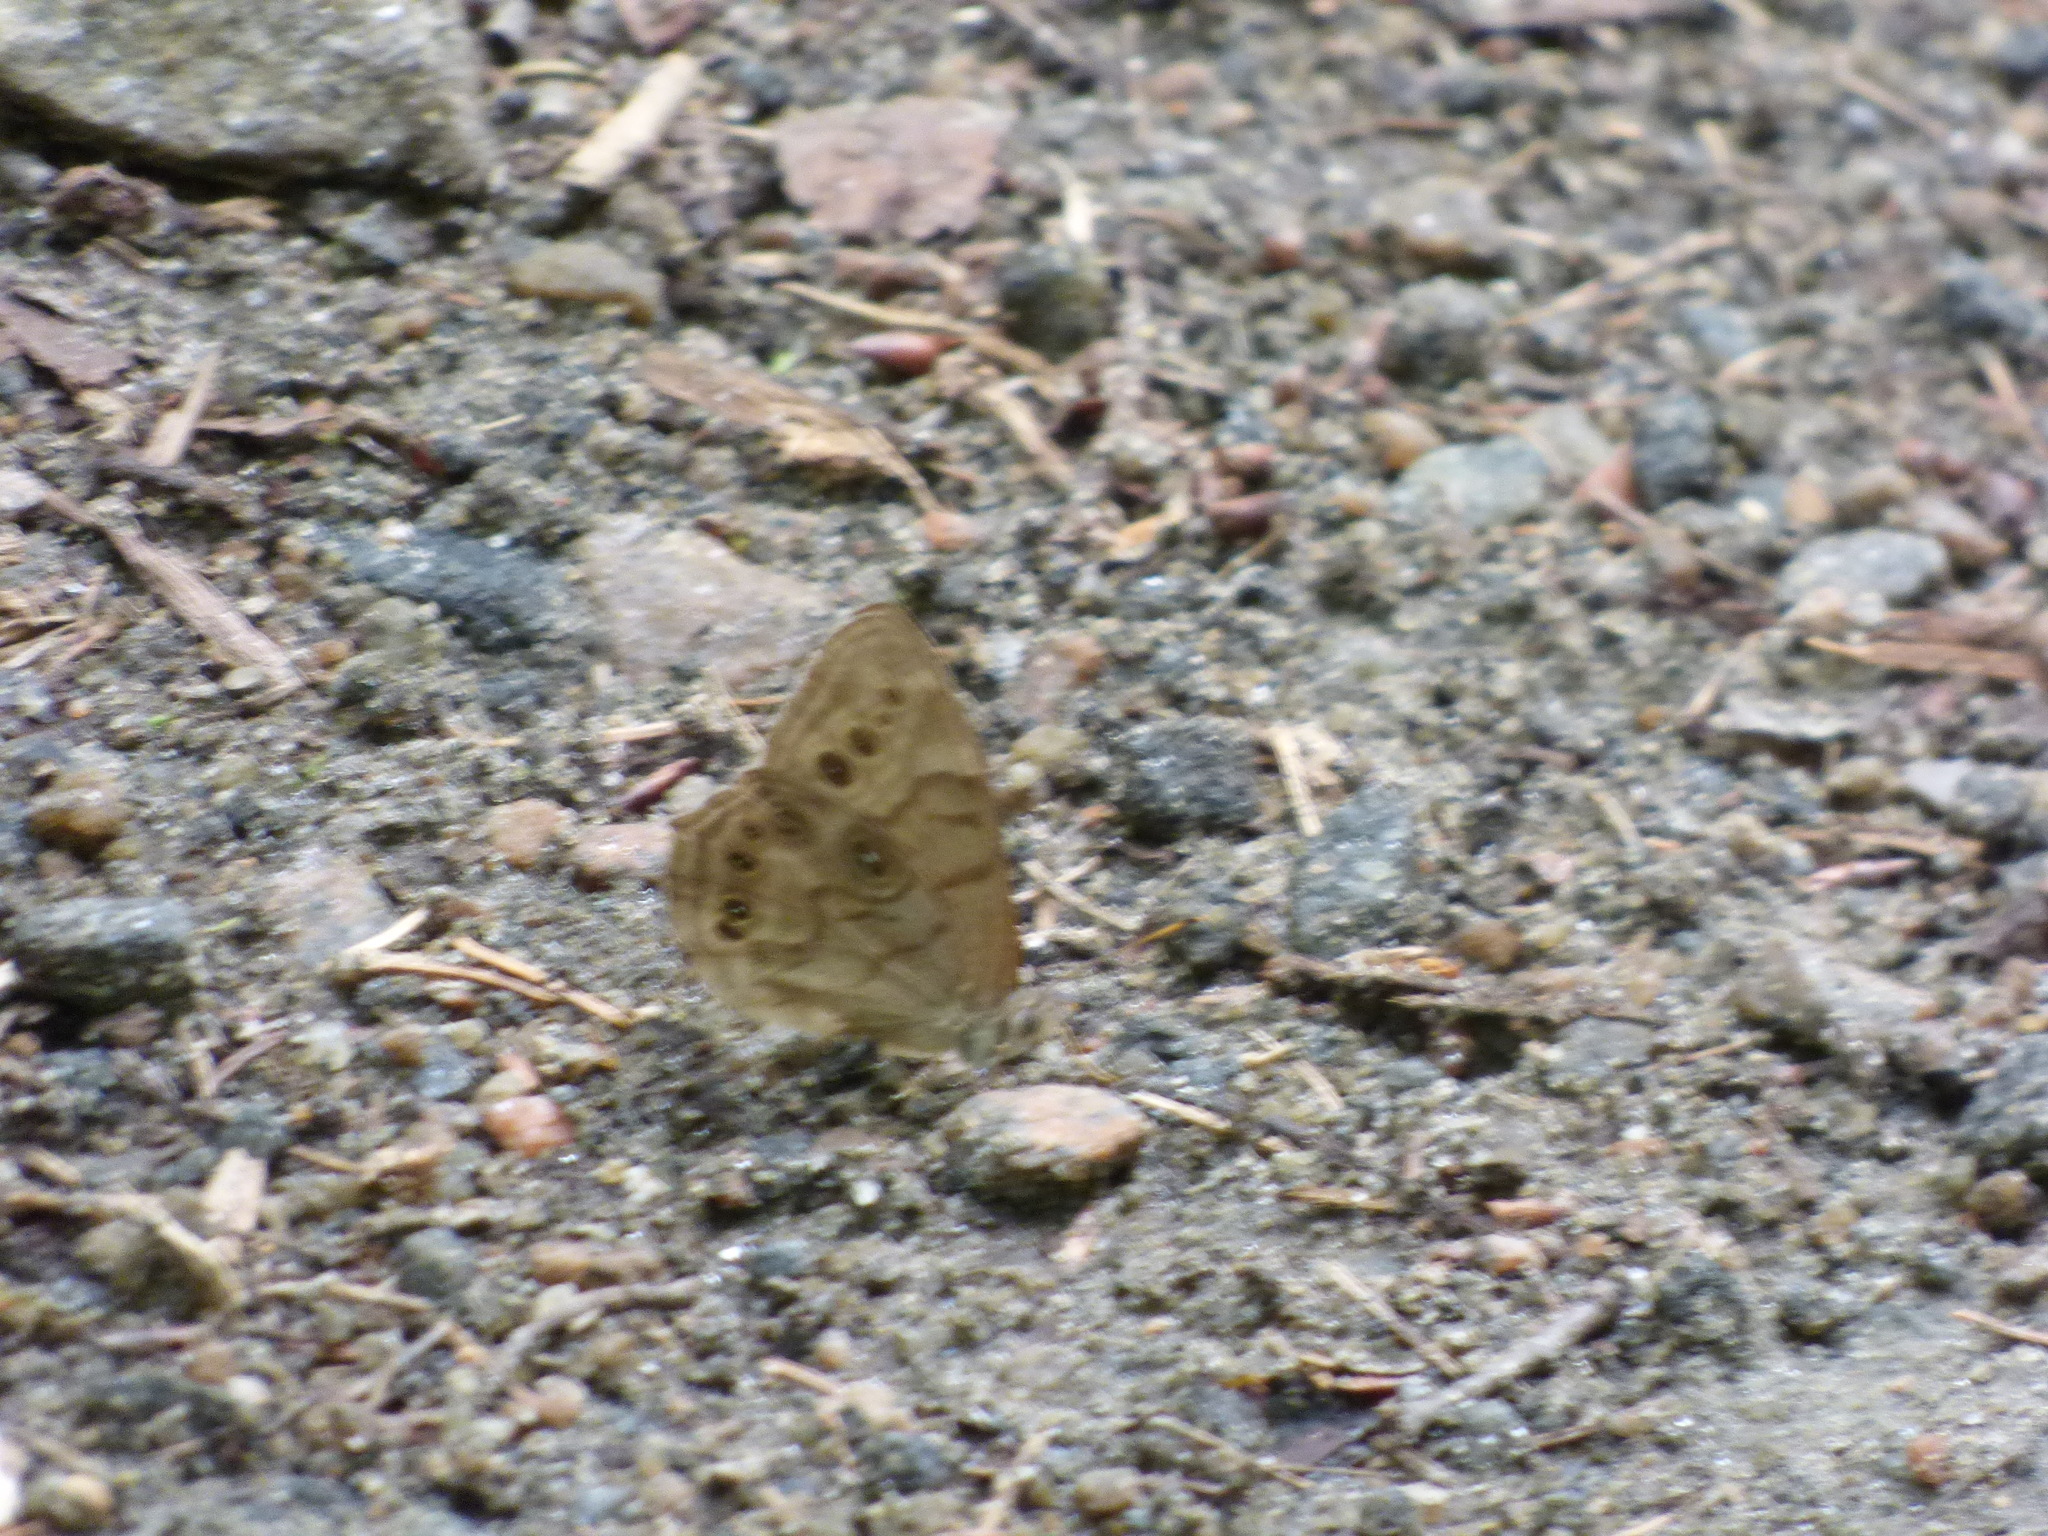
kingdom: Animalia
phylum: Arthropoda
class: Insecta
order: Lepidoptera
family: Nymphalidae
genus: Lethe
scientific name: Lethe anthedon
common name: Northern pearly-eye
